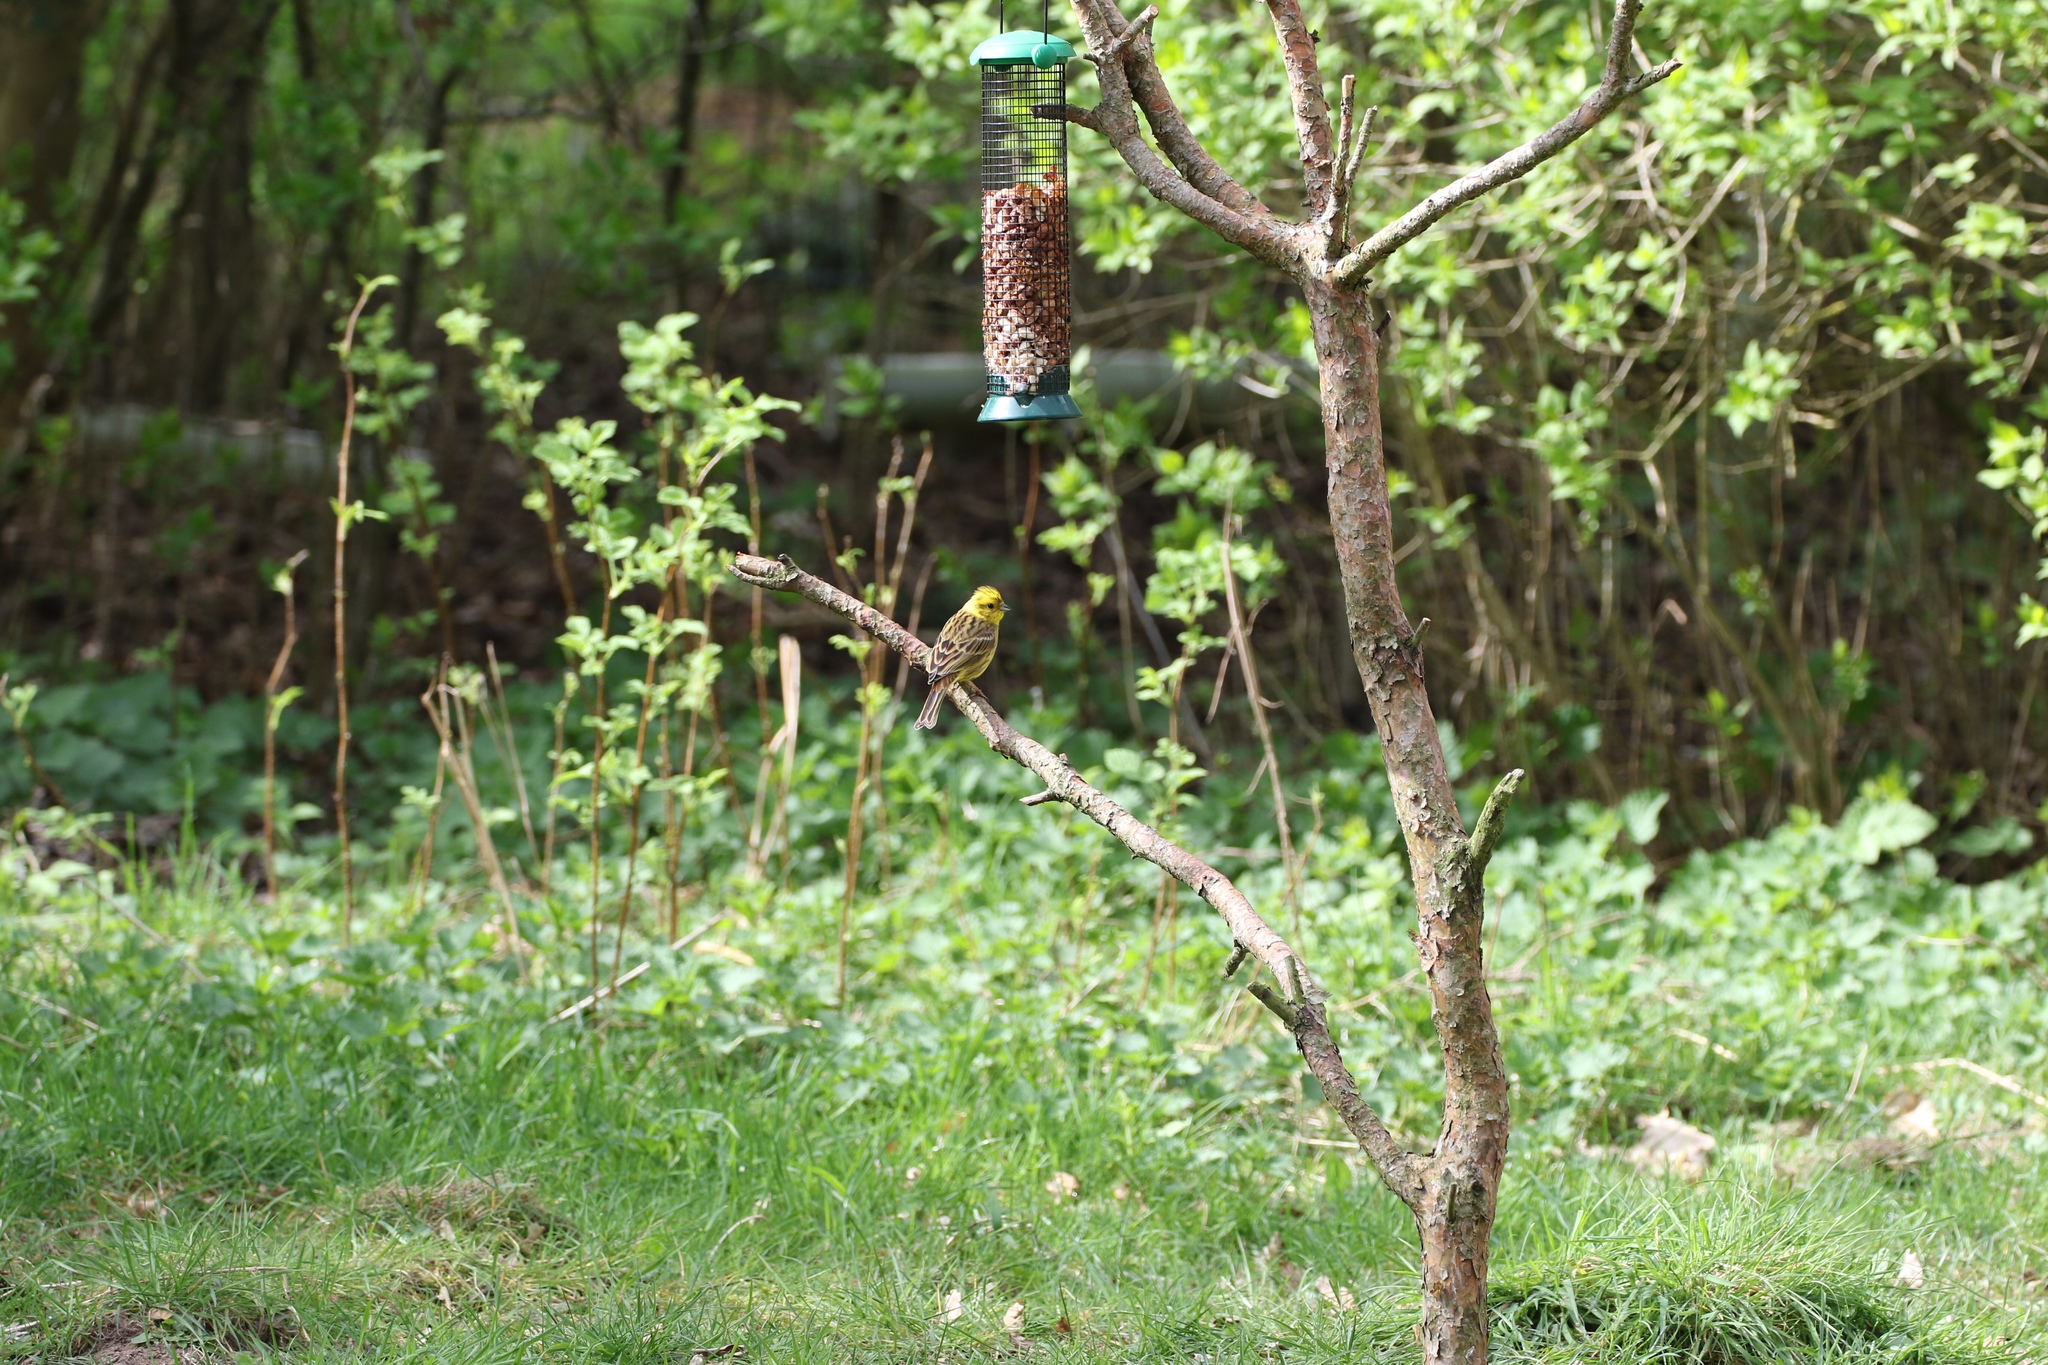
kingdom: Animalia
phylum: Chordata
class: Aves
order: Passeriformes
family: Emberizidae
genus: Emberiza
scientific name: Emberiza citrinella
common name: Yellowhammer
